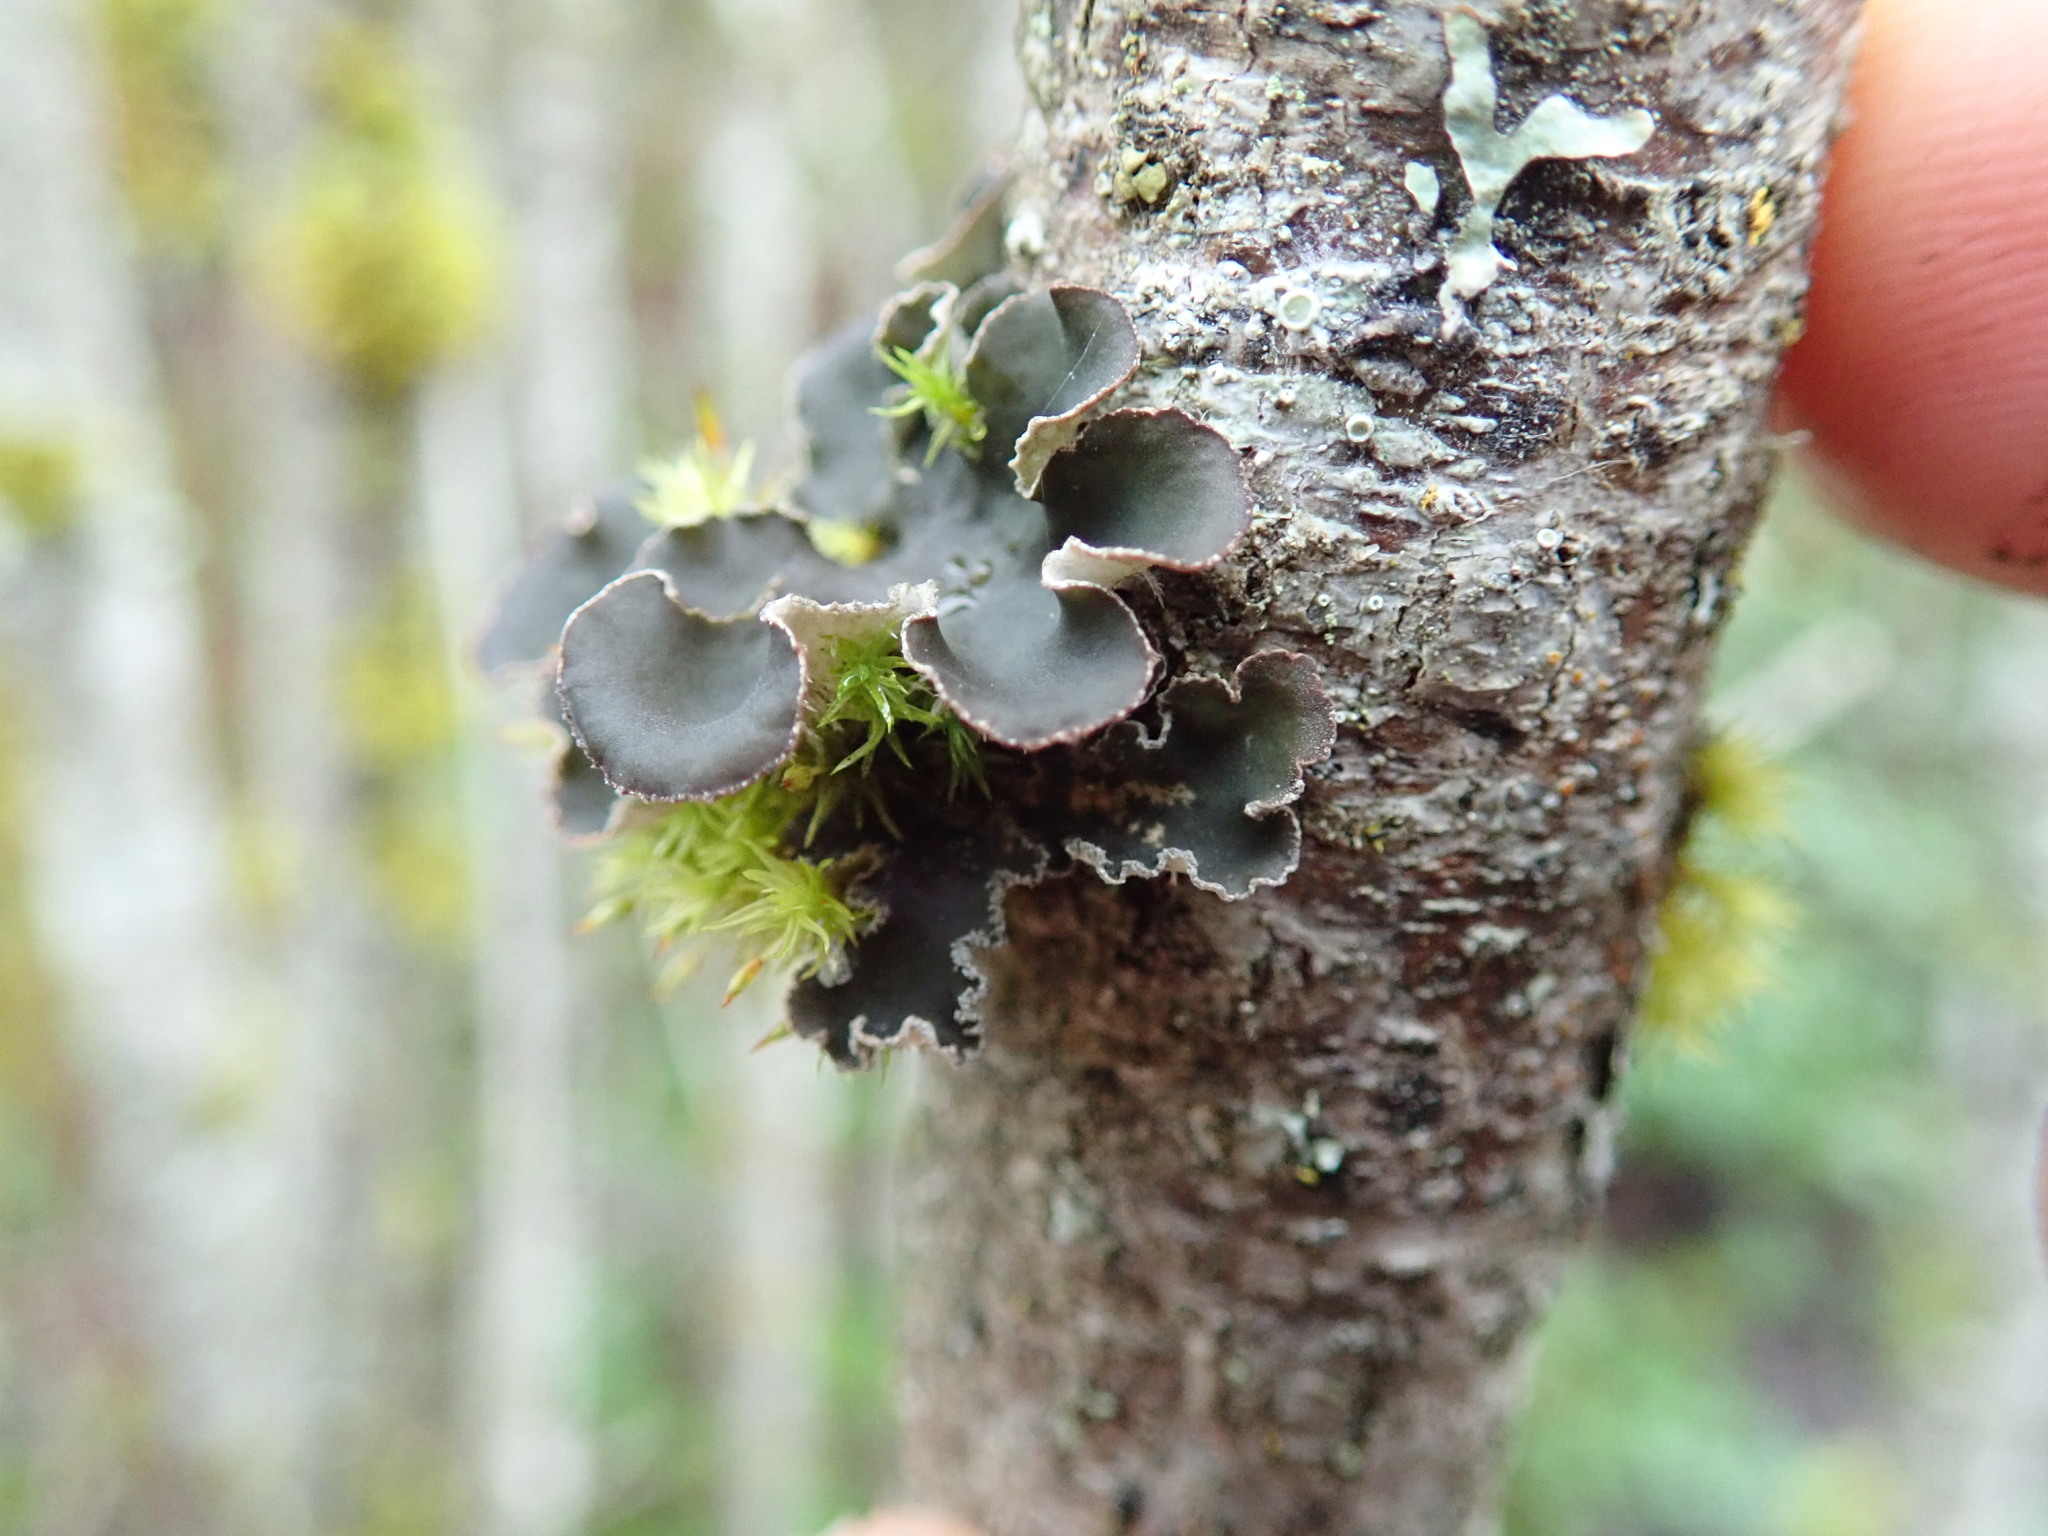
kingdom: Fungi
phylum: Ascomycota
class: Lecanoromycetes
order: Peltigerales
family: Peltigeraceae
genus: Peltigera
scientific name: Peltigera collina
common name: Gritty tree pelt lichen
